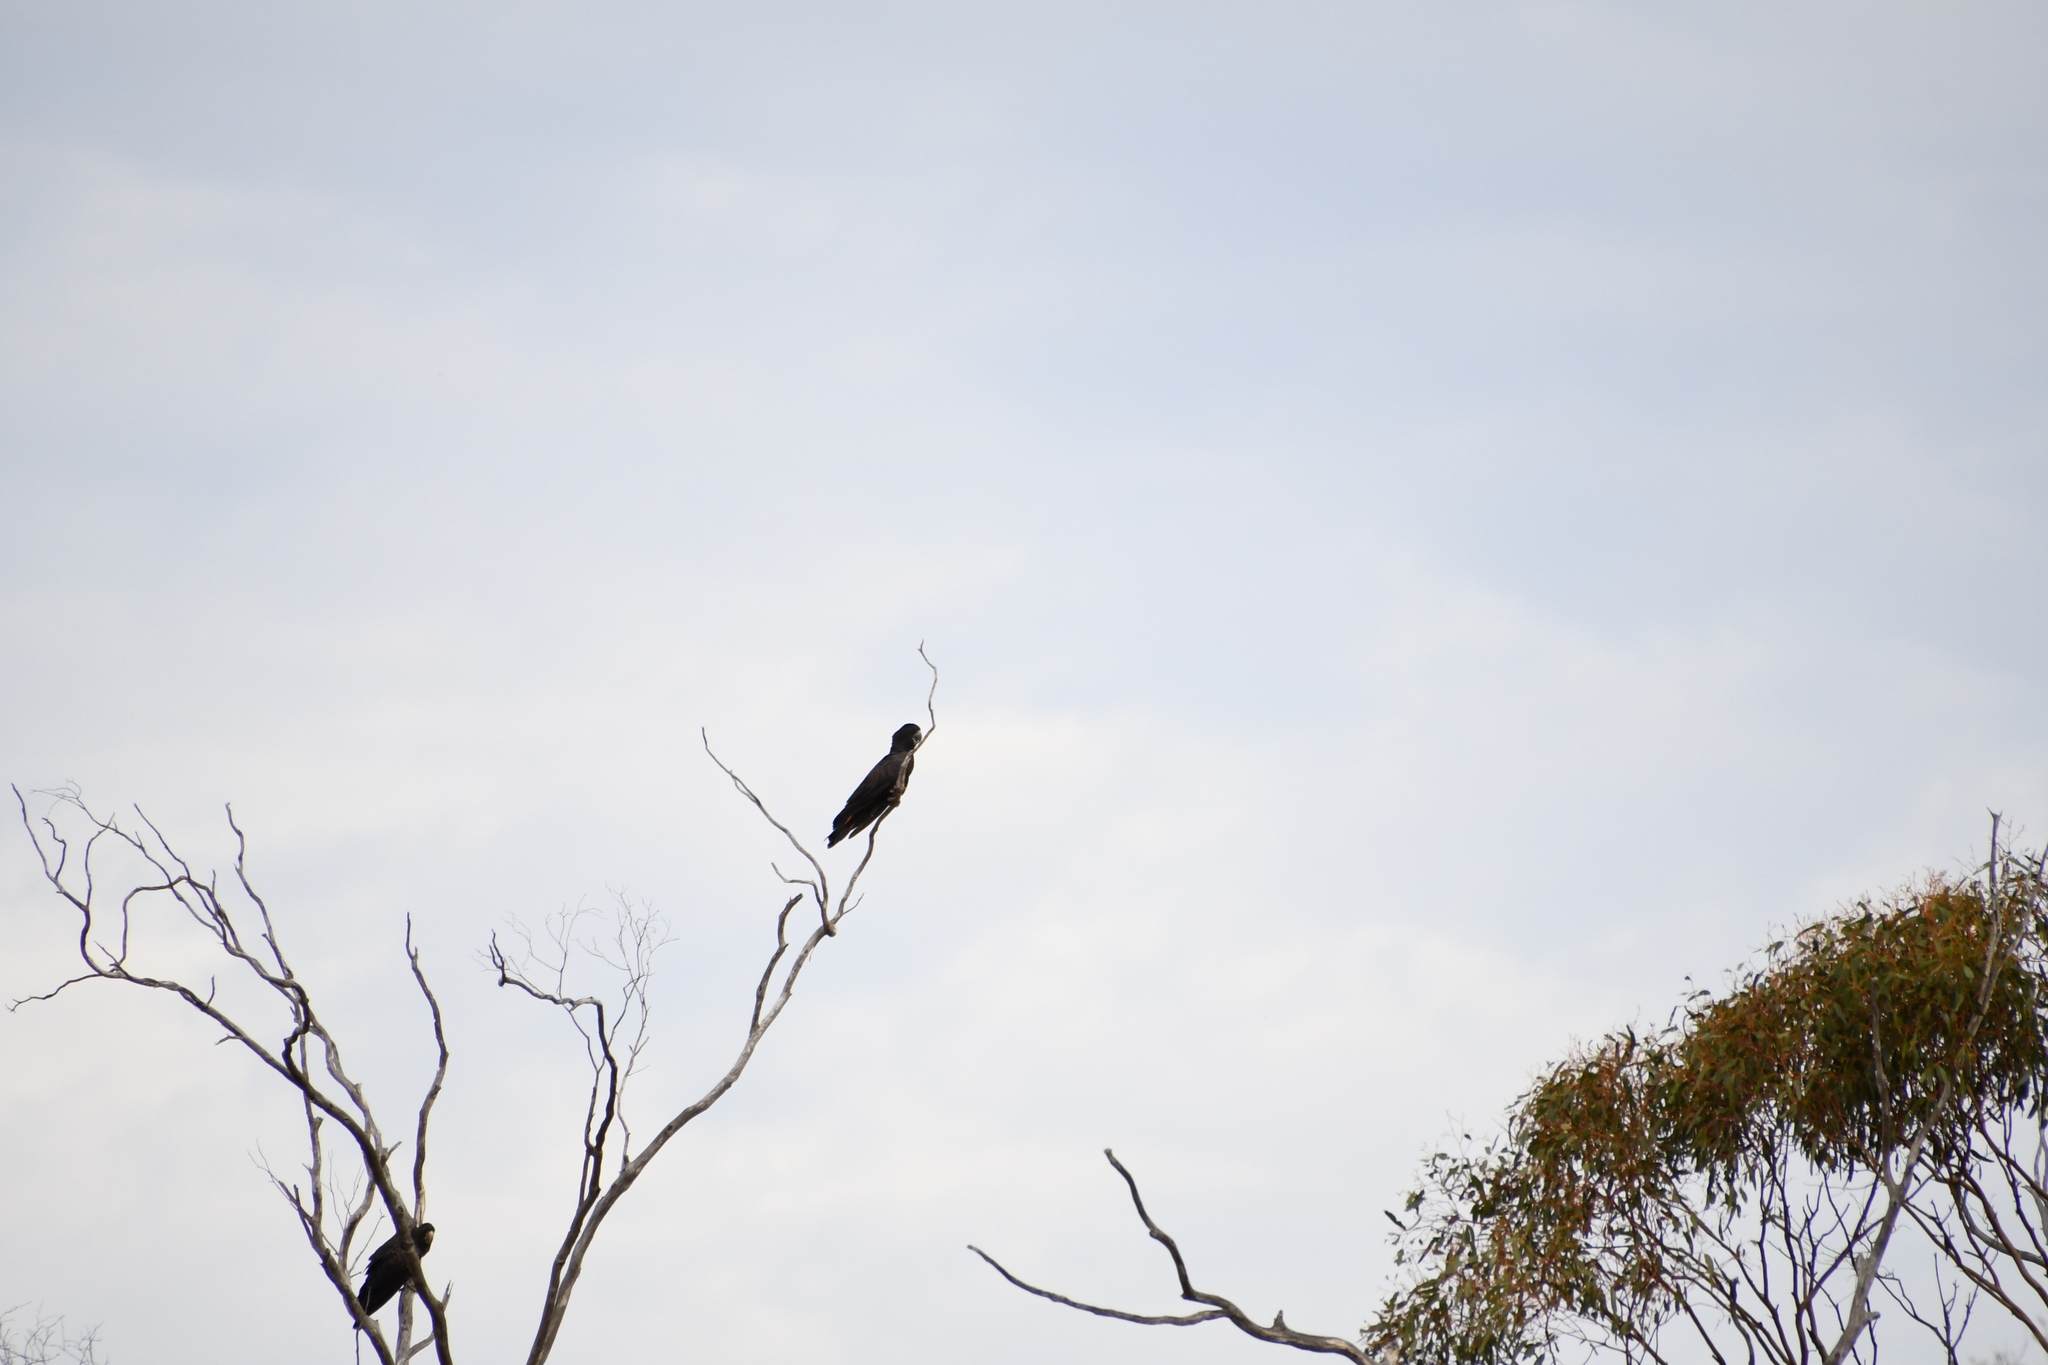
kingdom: Animalia
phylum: Chordata
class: Aves
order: Psittaciformes
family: Psittacidae
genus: Calyptorhynchus
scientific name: Calyptorhynchus banksii
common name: Red-tailed black cockatoo
